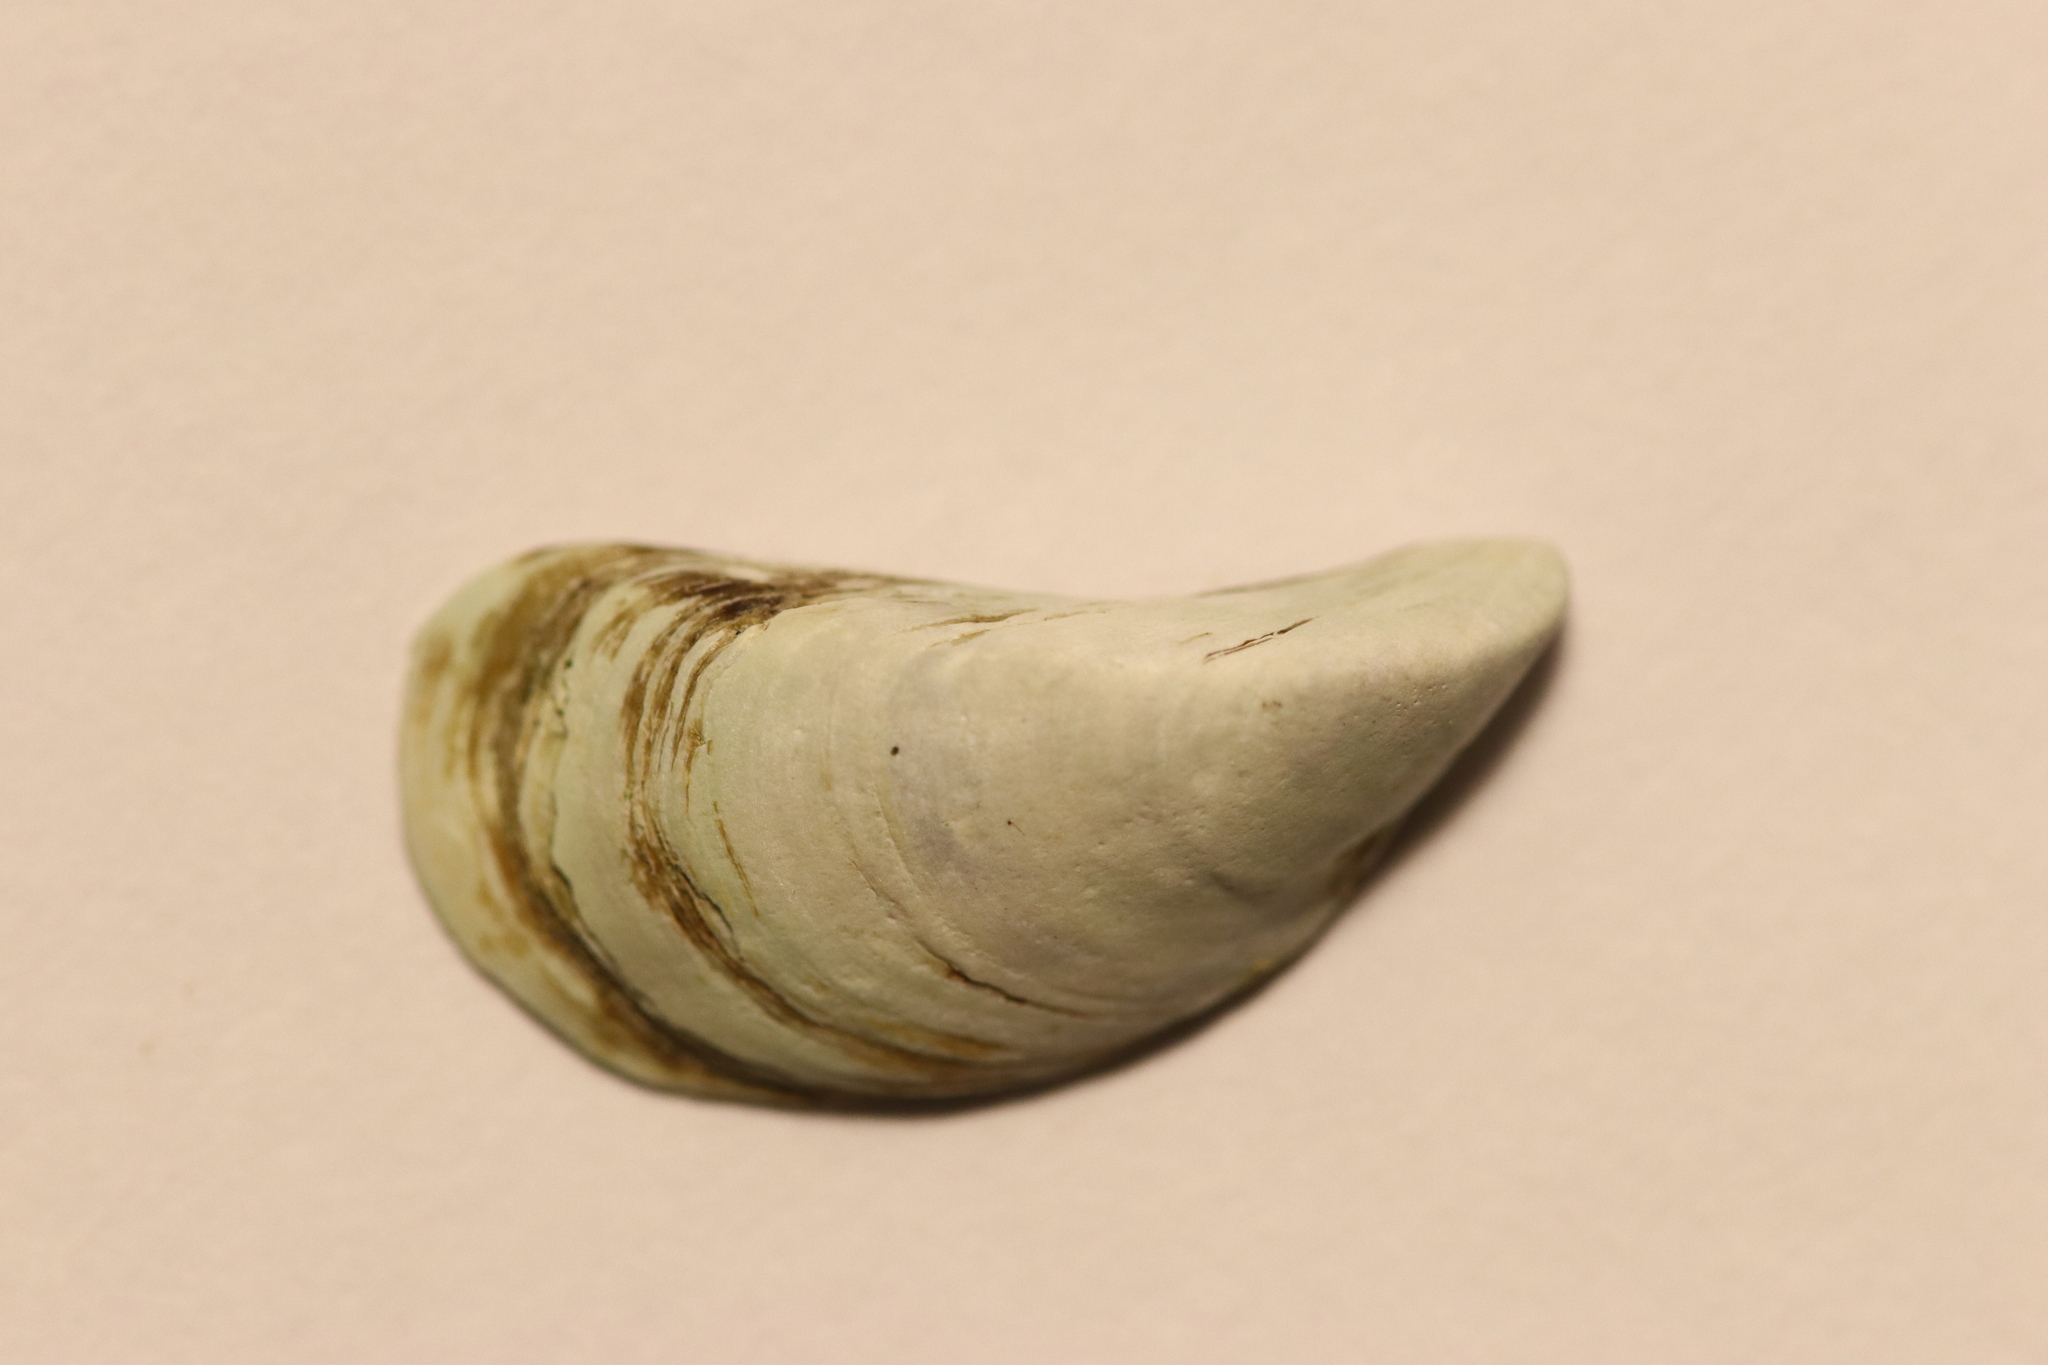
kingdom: Animalia
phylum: Mollusca
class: Bivalvia
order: Myida
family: Dreissenidae
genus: Dreissena
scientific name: Dreissena polymorpha
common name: Zebra mussel
